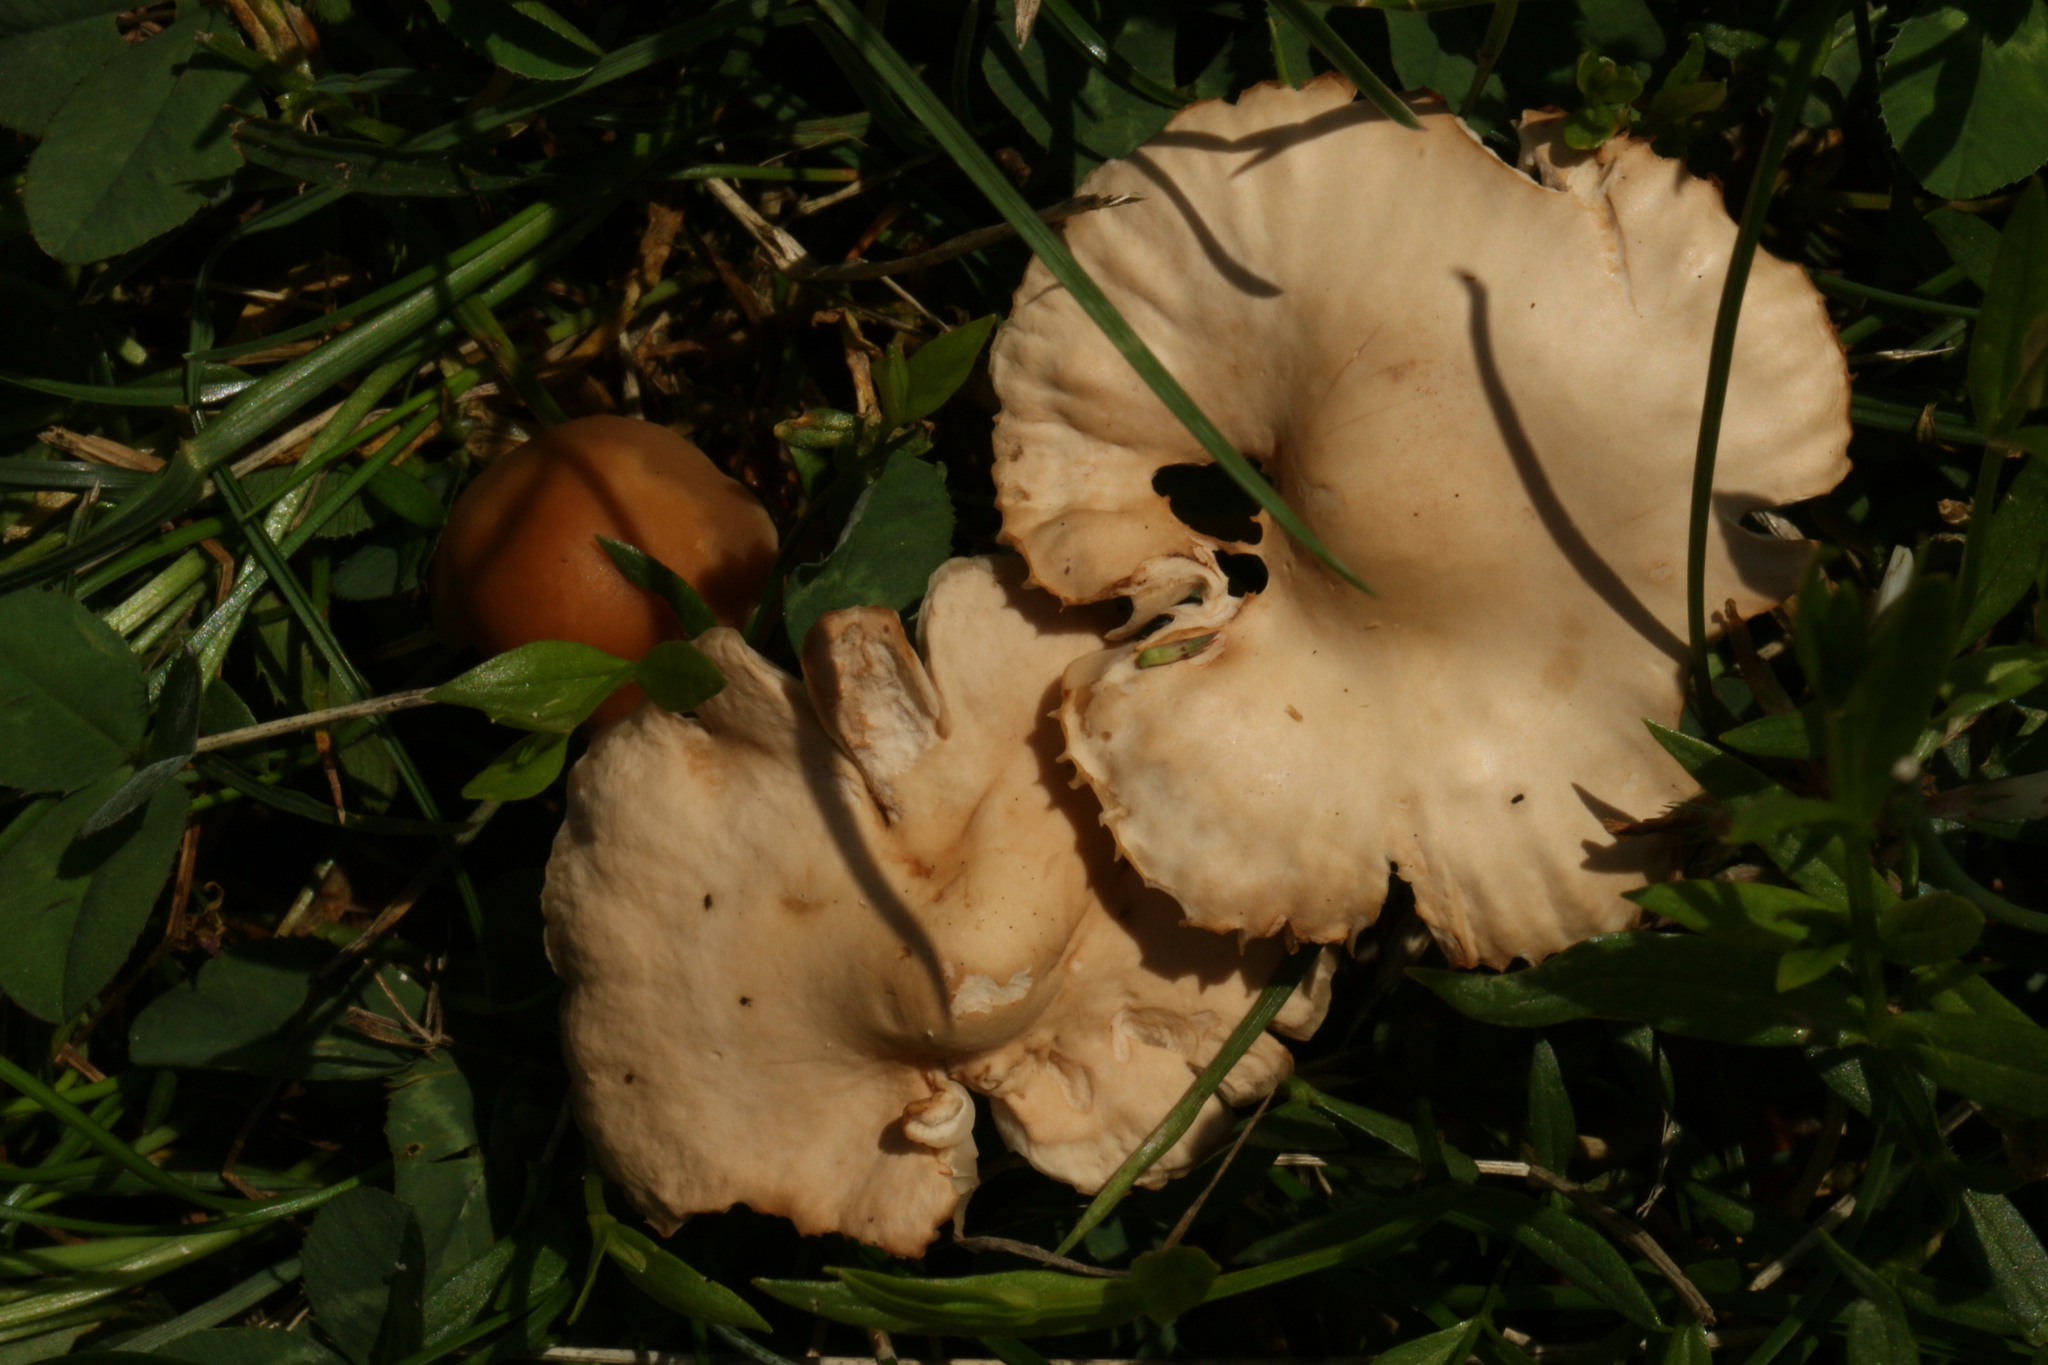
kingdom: Fungi
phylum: Basidiomycota
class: Agaricomycetes
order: Agaricales
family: Marasmiaceae
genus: Marasmius
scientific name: Marasmius oreades
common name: Fairy ring champignon
